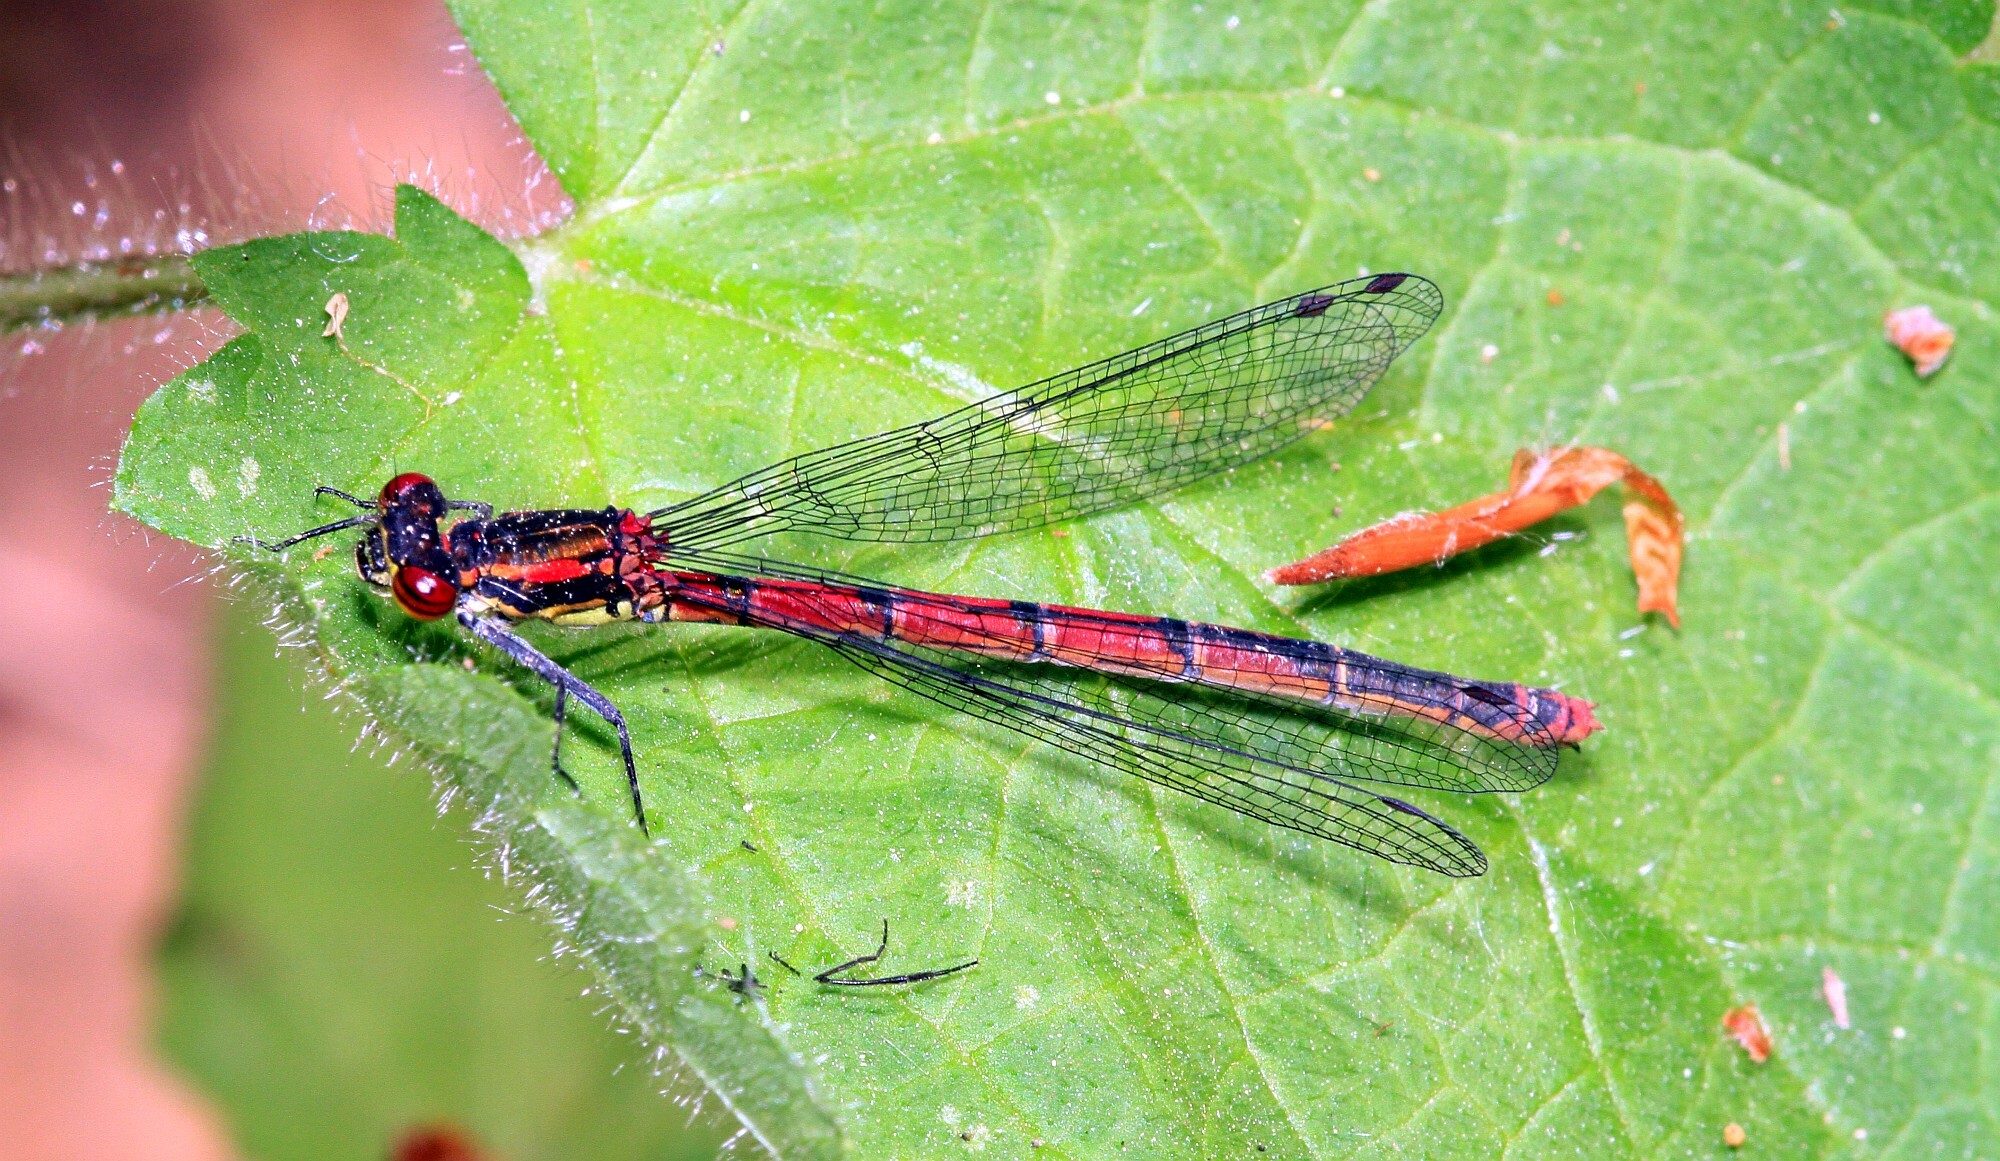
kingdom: Animalia
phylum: Arthropoda
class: Insecta
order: Odonata
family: Coenagrionidae
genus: Pyrrhosoma
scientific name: Pyrrhosoma nymphula
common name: Large red damsel
